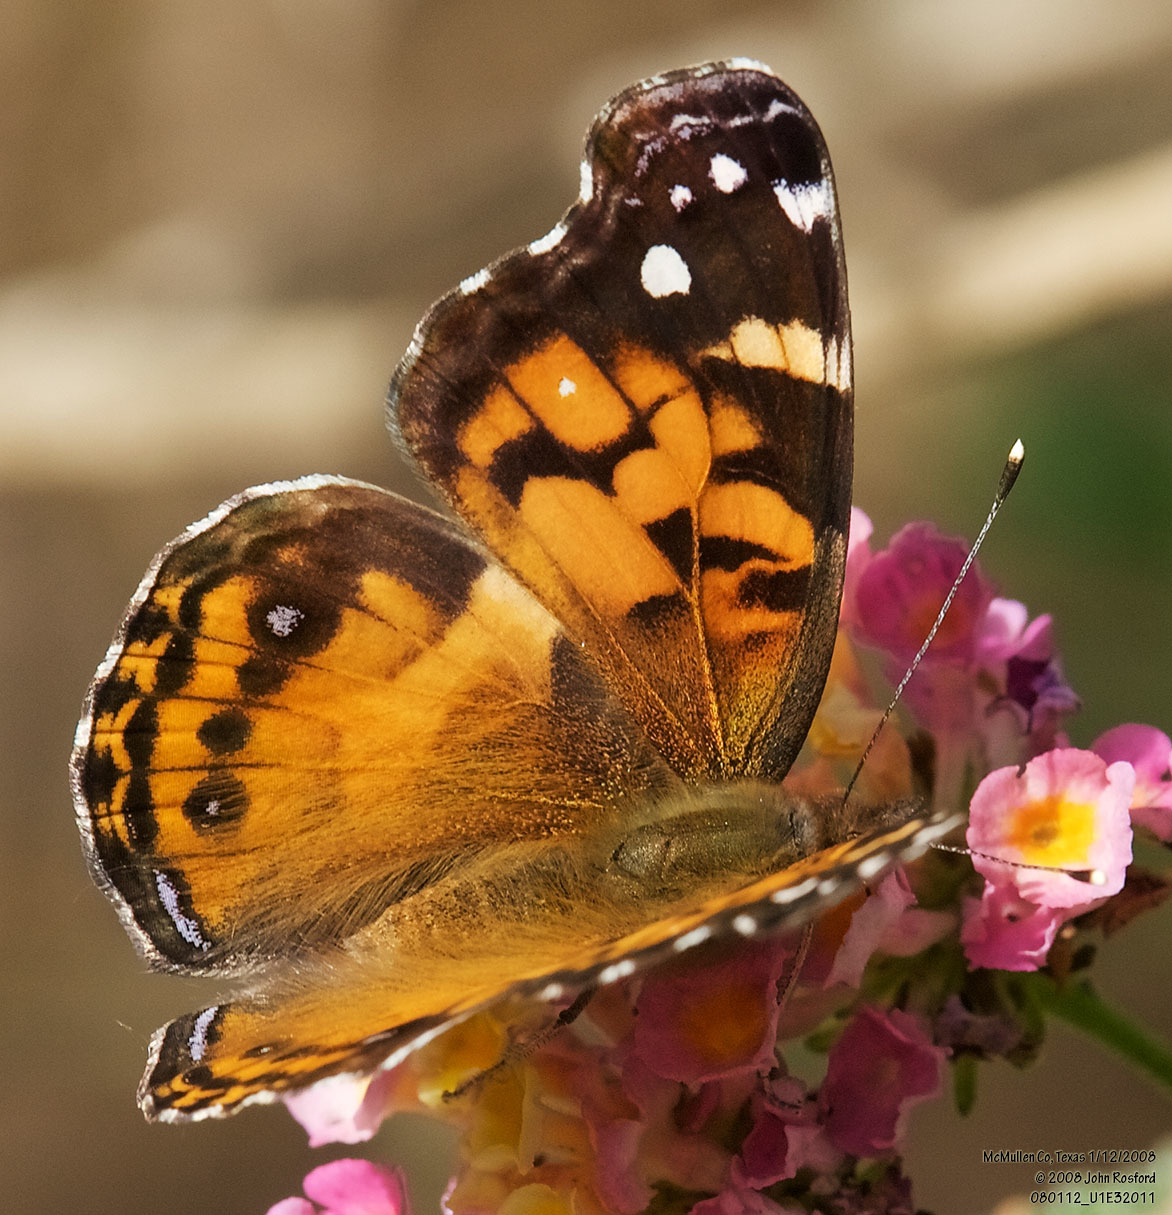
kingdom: Animalia
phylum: Arthropoda
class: Insecta
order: Lepidoptera
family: Nymphalidae
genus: Vanessa
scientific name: Vanessa virginiensis
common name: American lady
